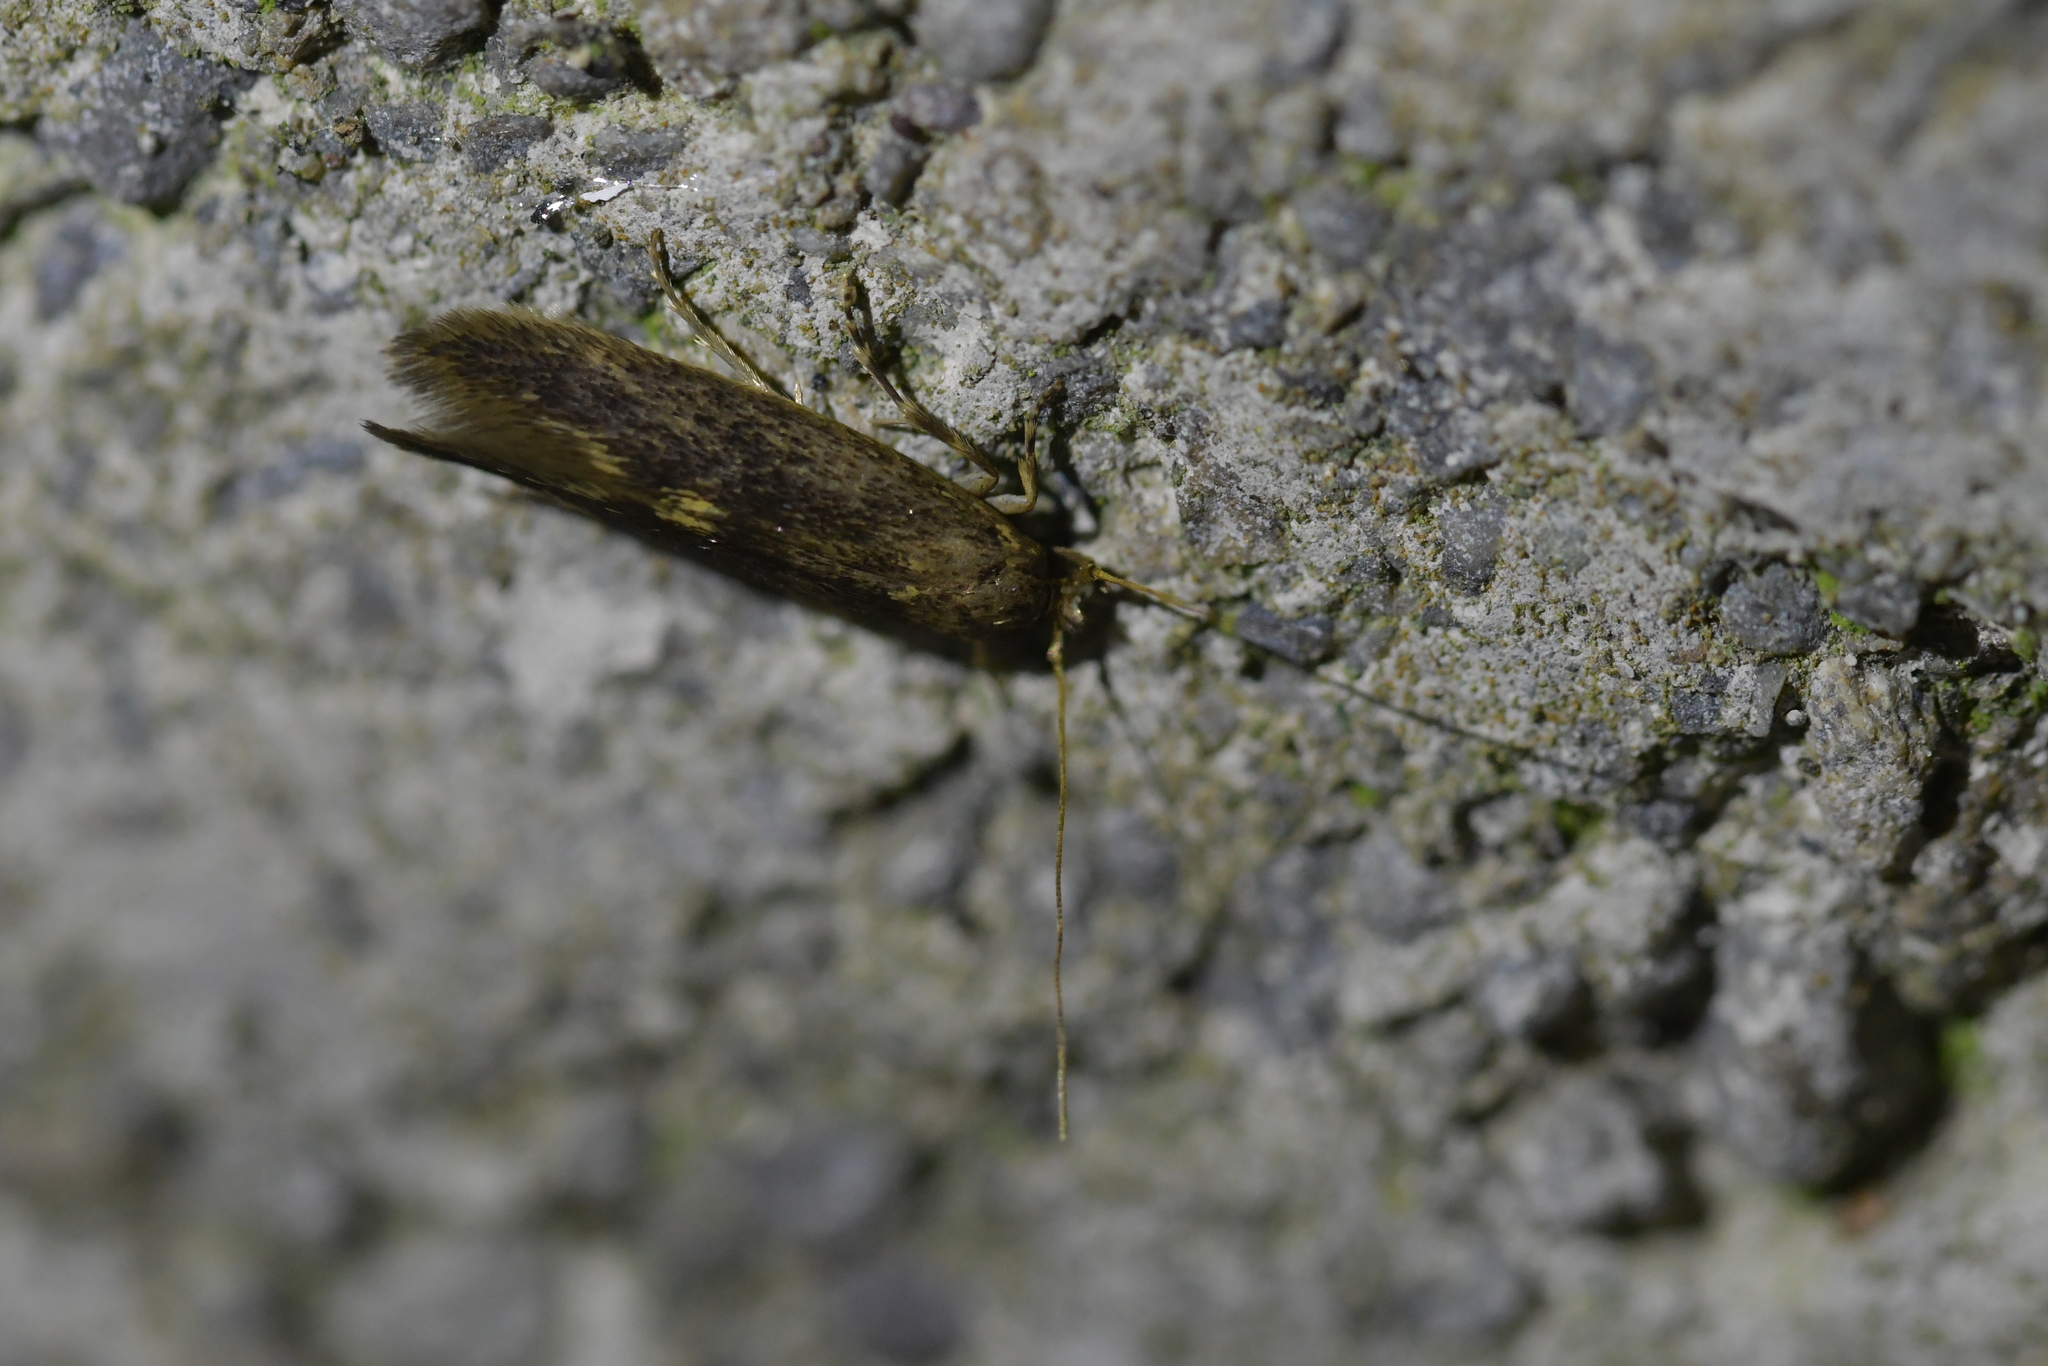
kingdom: Animalia
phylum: Arthropoda
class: Insecta
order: Lepidoptera
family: Tineidae
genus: Opogona
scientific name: Opogona omoscopa
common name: Moth
